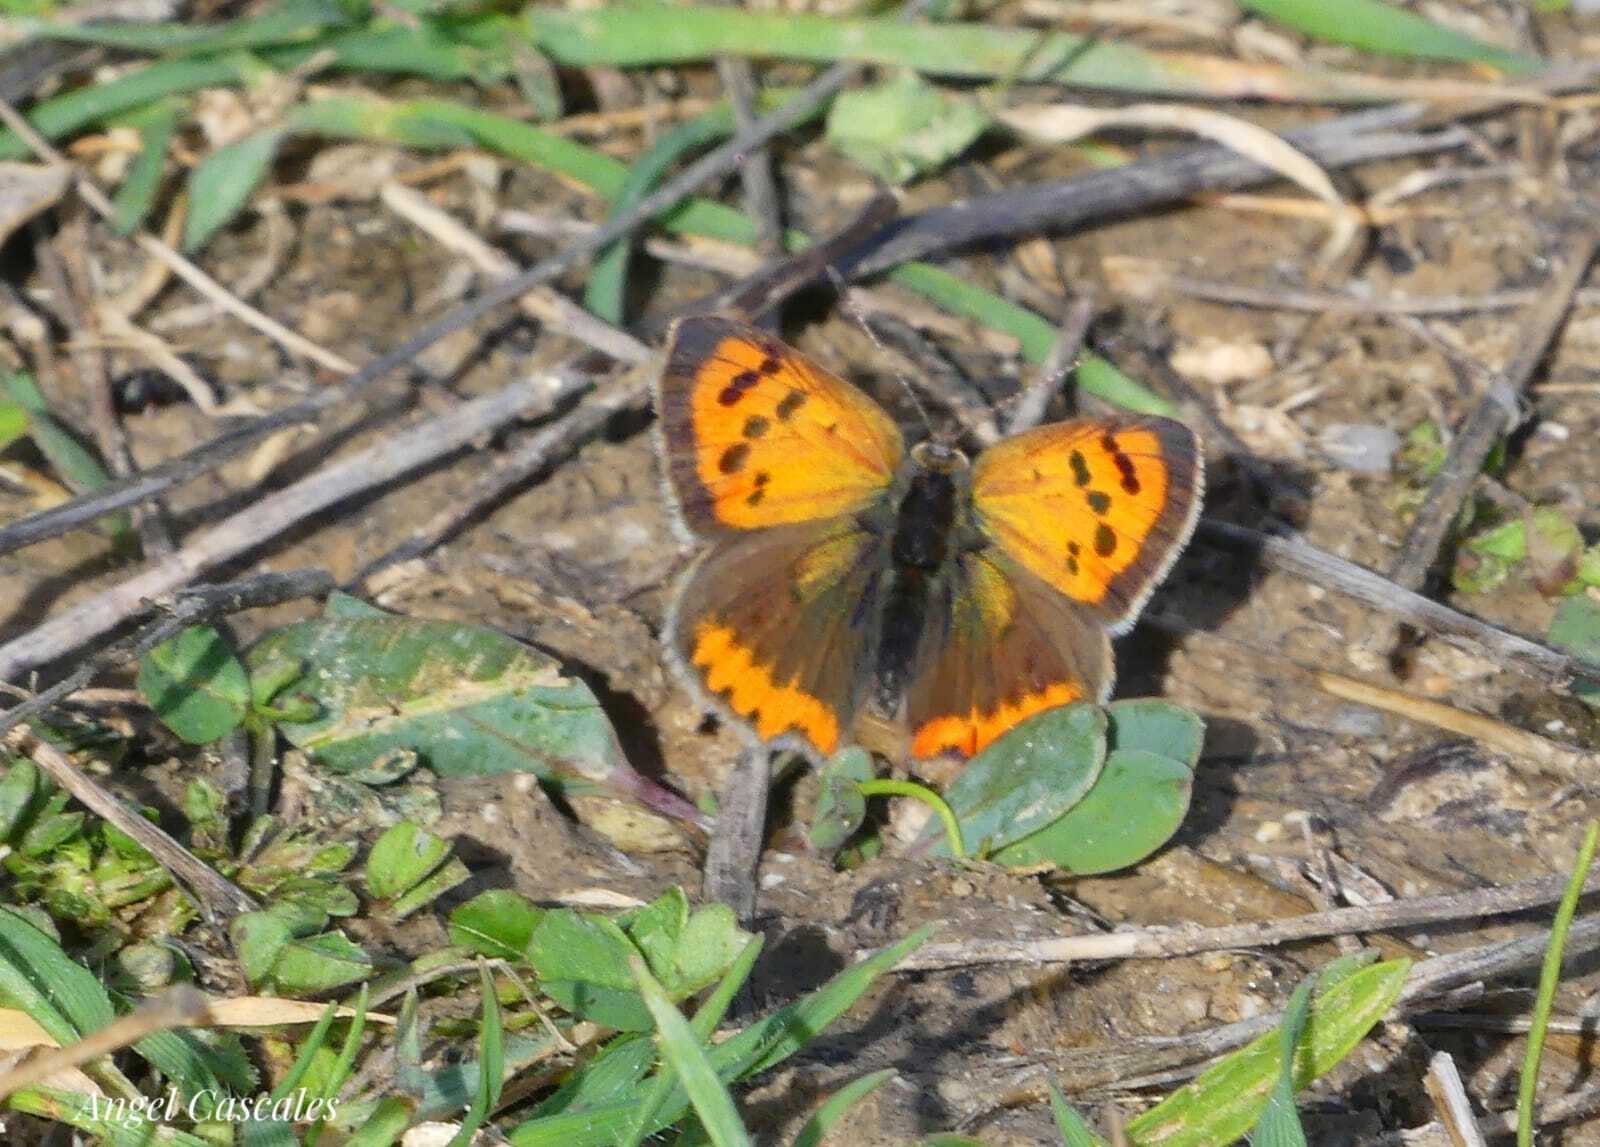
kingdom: Animalia
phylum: Arthropoda
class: Insecta
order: Lepidoptera
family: Lycaenidae
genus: Lycaena
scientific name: Lycaena phlaeas
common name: Small copper
